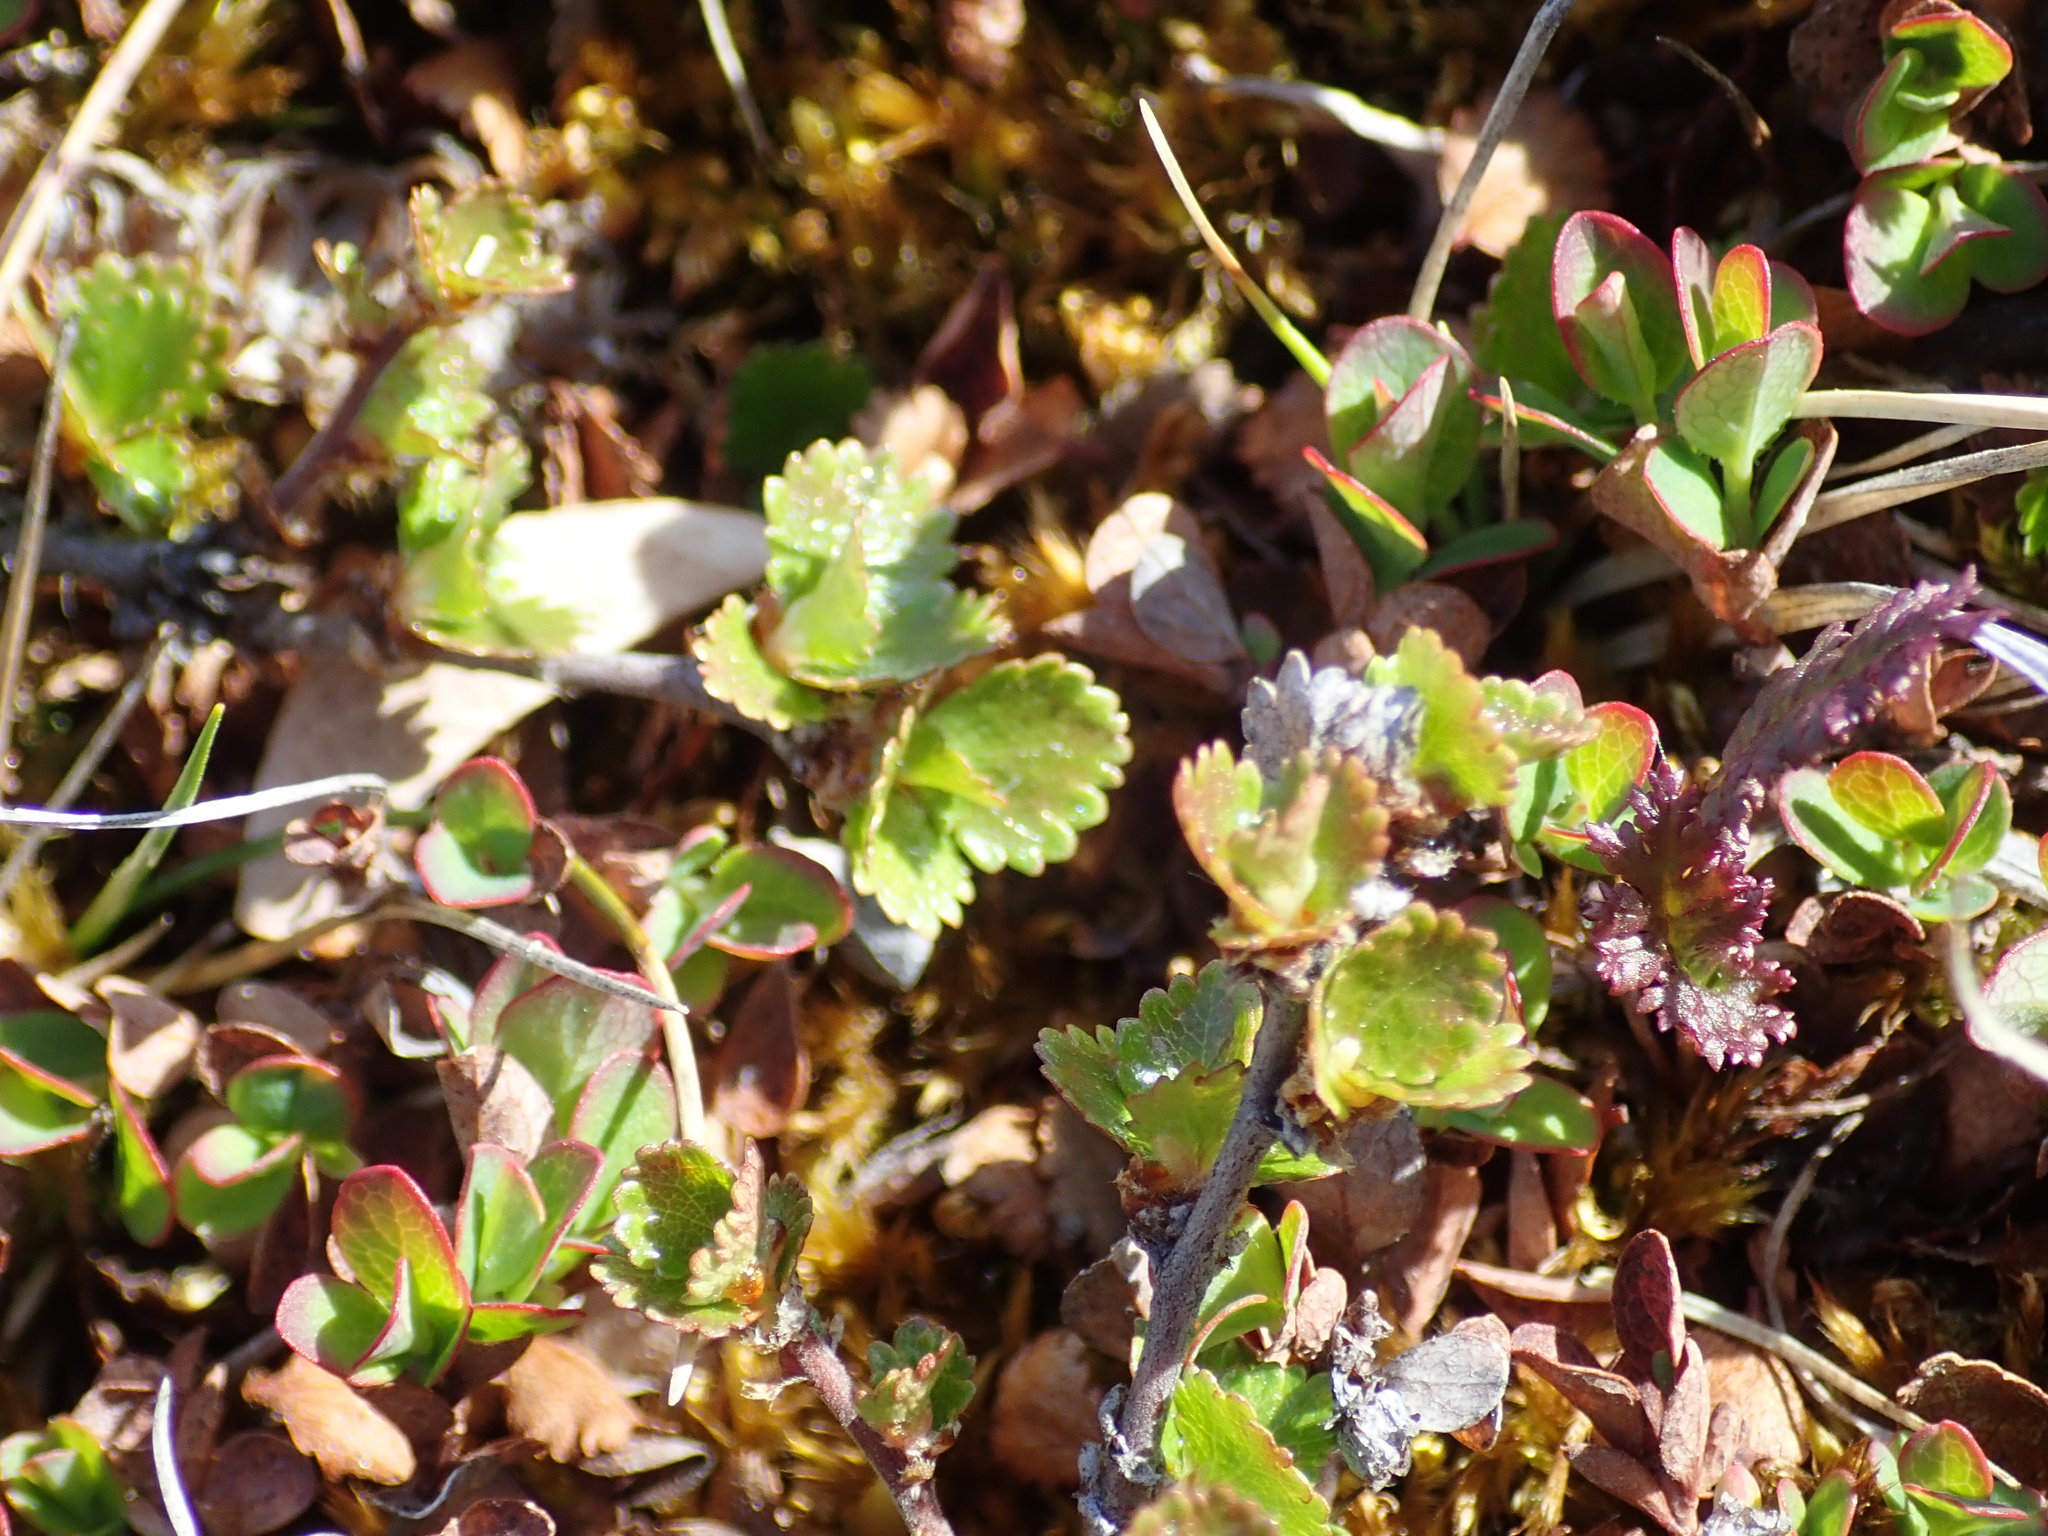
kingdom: Plantae
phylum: Tracheophyta
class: Magnoliopsida
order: Fagales
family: Betulaceae
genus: Betula
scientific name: Betula nana
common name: Arctic dwarf birch
